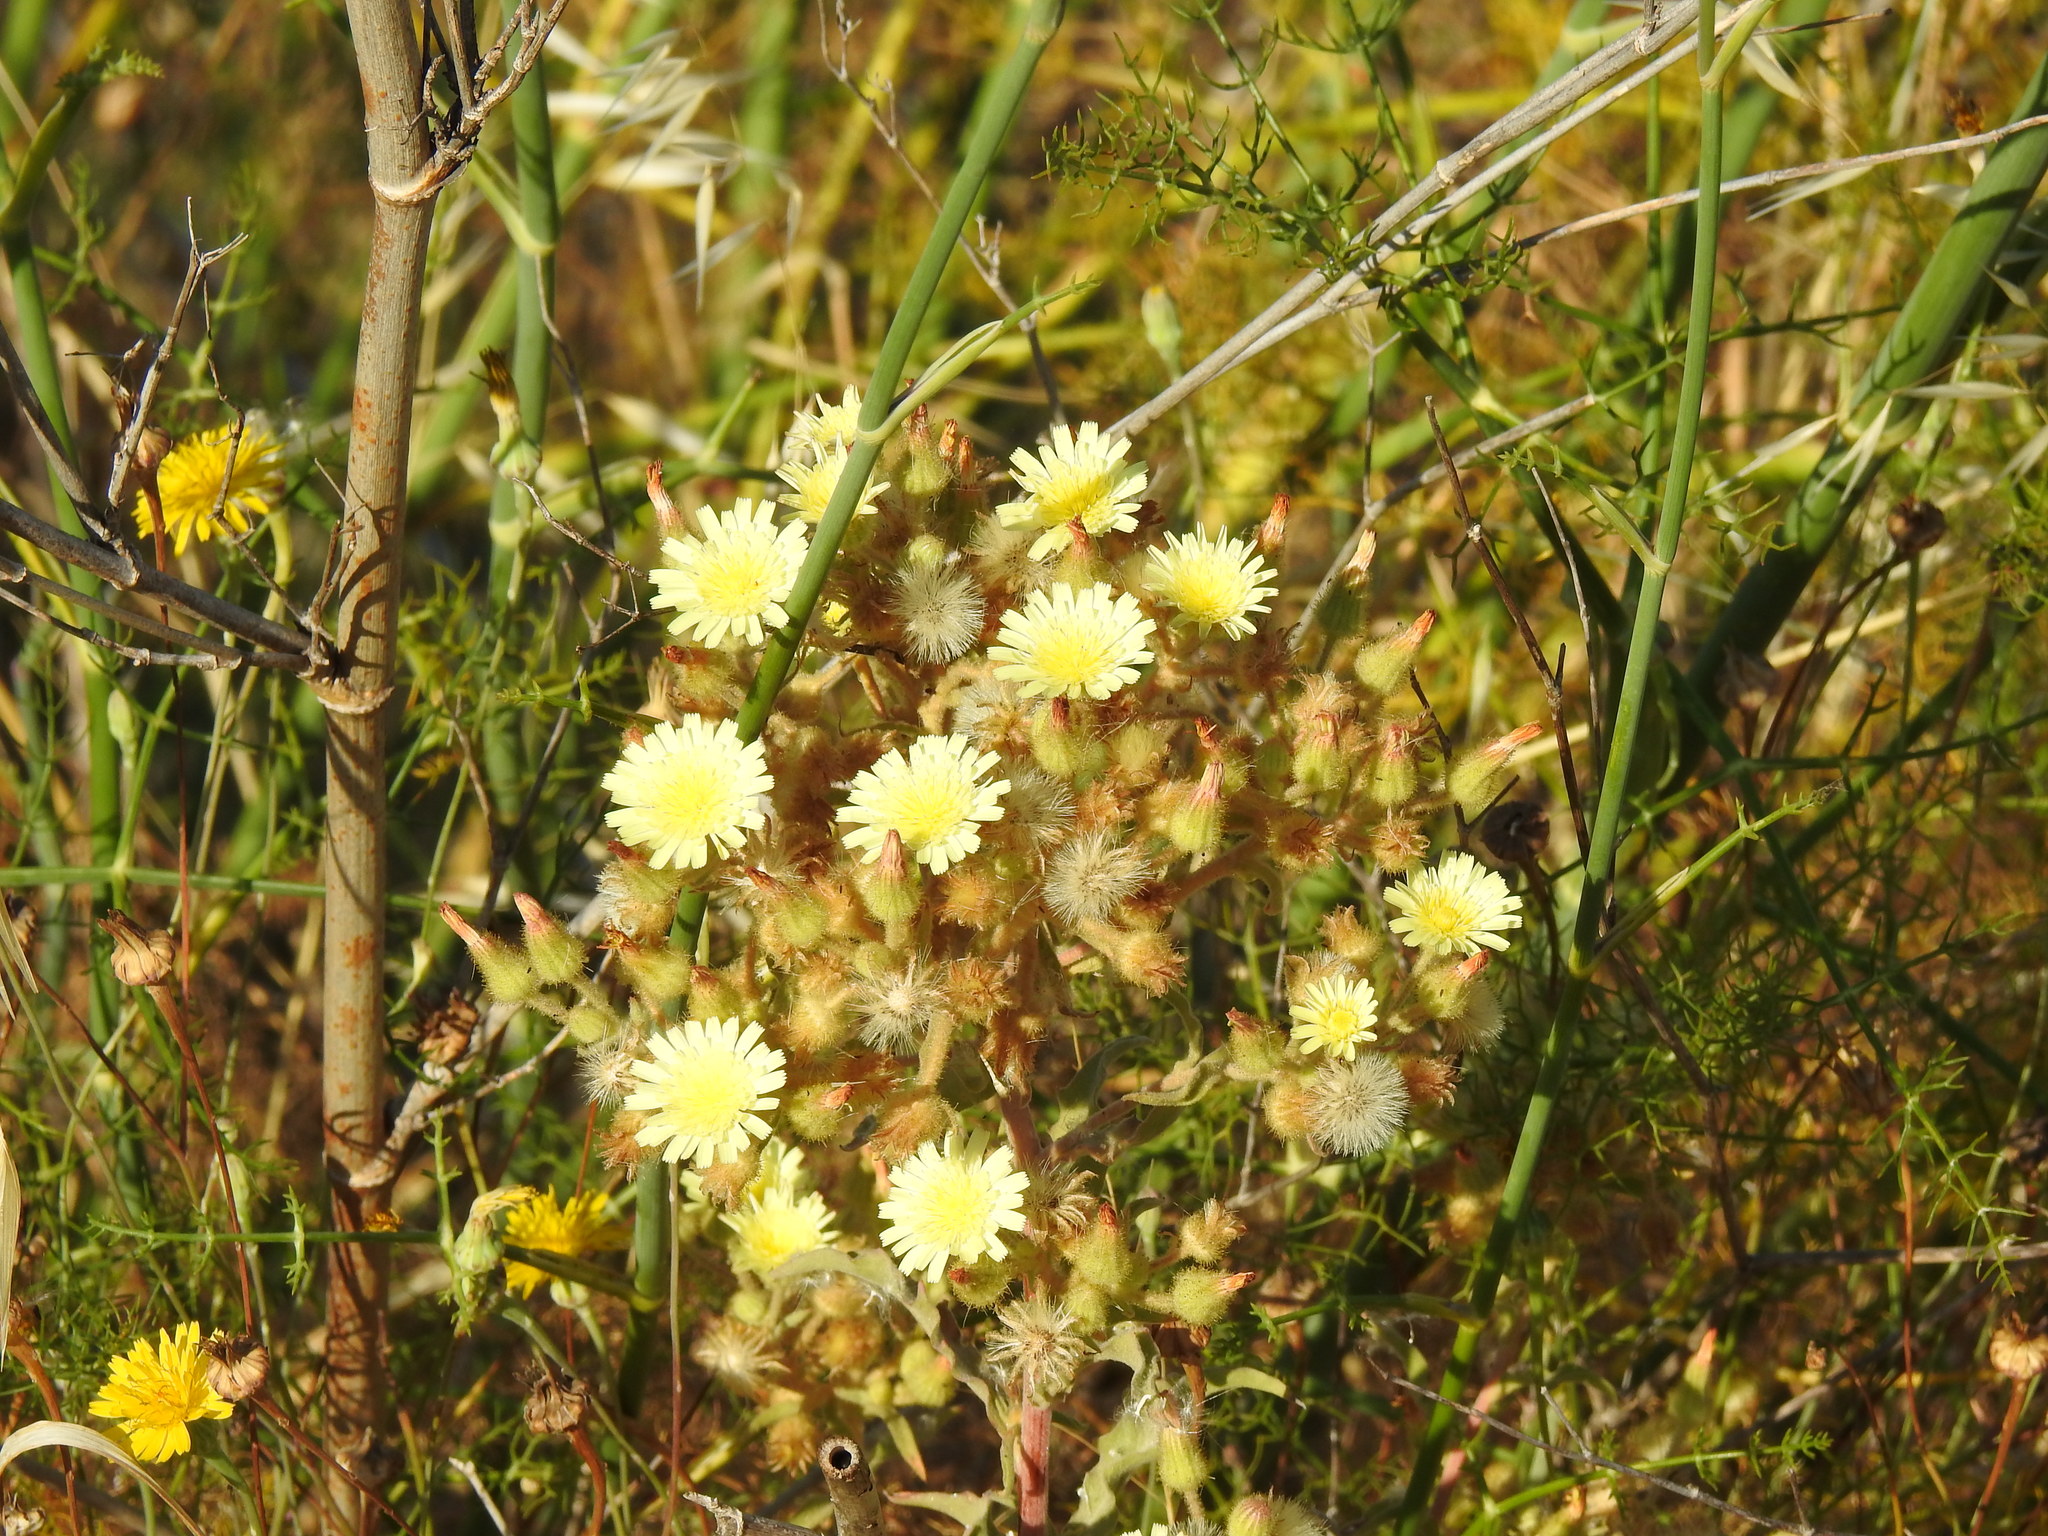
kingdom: Plantae
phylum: Tracheophyta
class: Magnoliopsida
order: Asterales
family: Asteraceae
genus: Andryala
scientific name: Andryala integrifolia
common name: Common andryala
